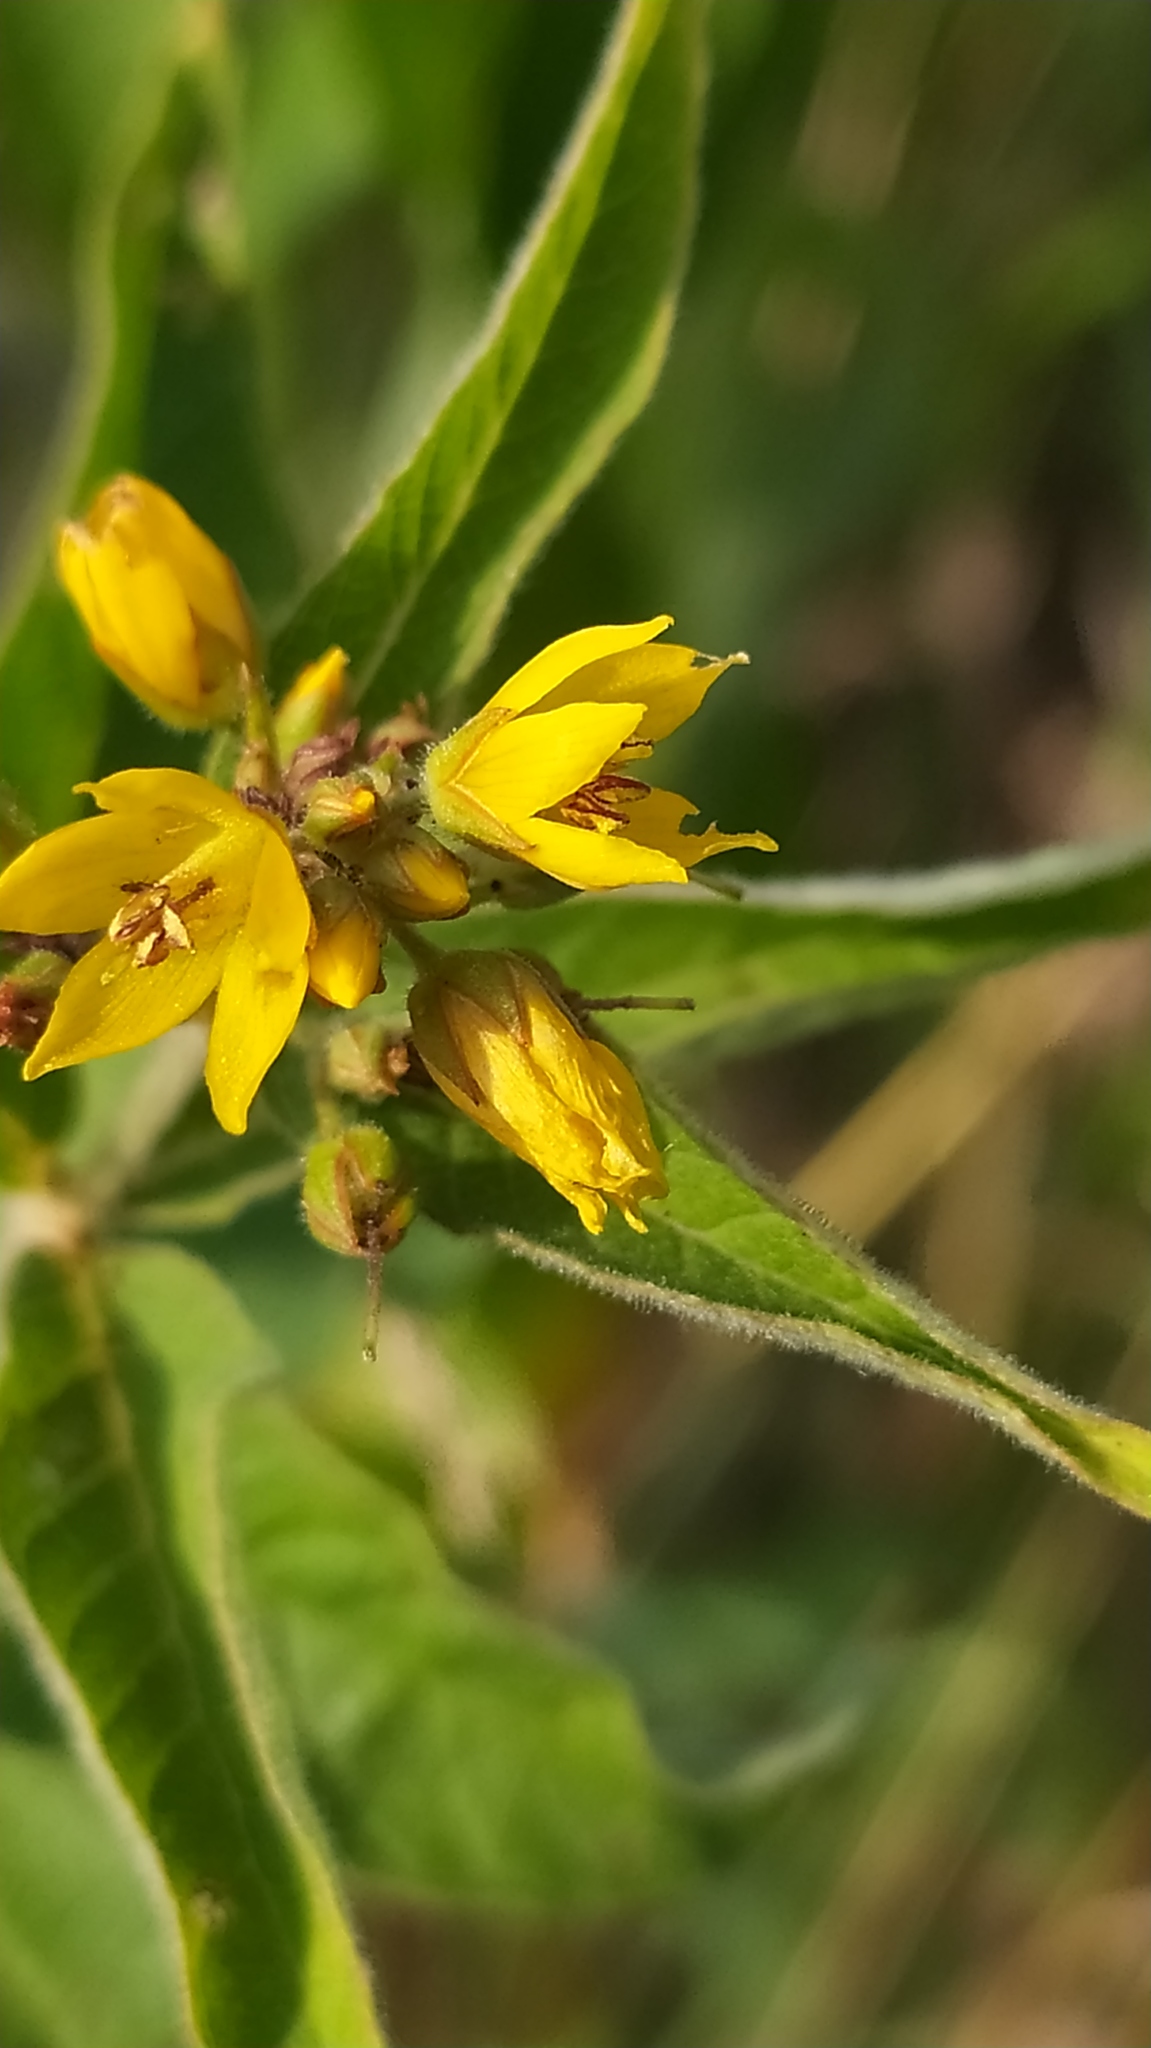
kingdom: Plantae
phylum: Tracheophyta
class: Magnoliopsida
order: Ericales
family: Primulaceae
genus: Lysimachia
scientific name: Lysimachia vulgaris
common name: Yellow loosestrife
